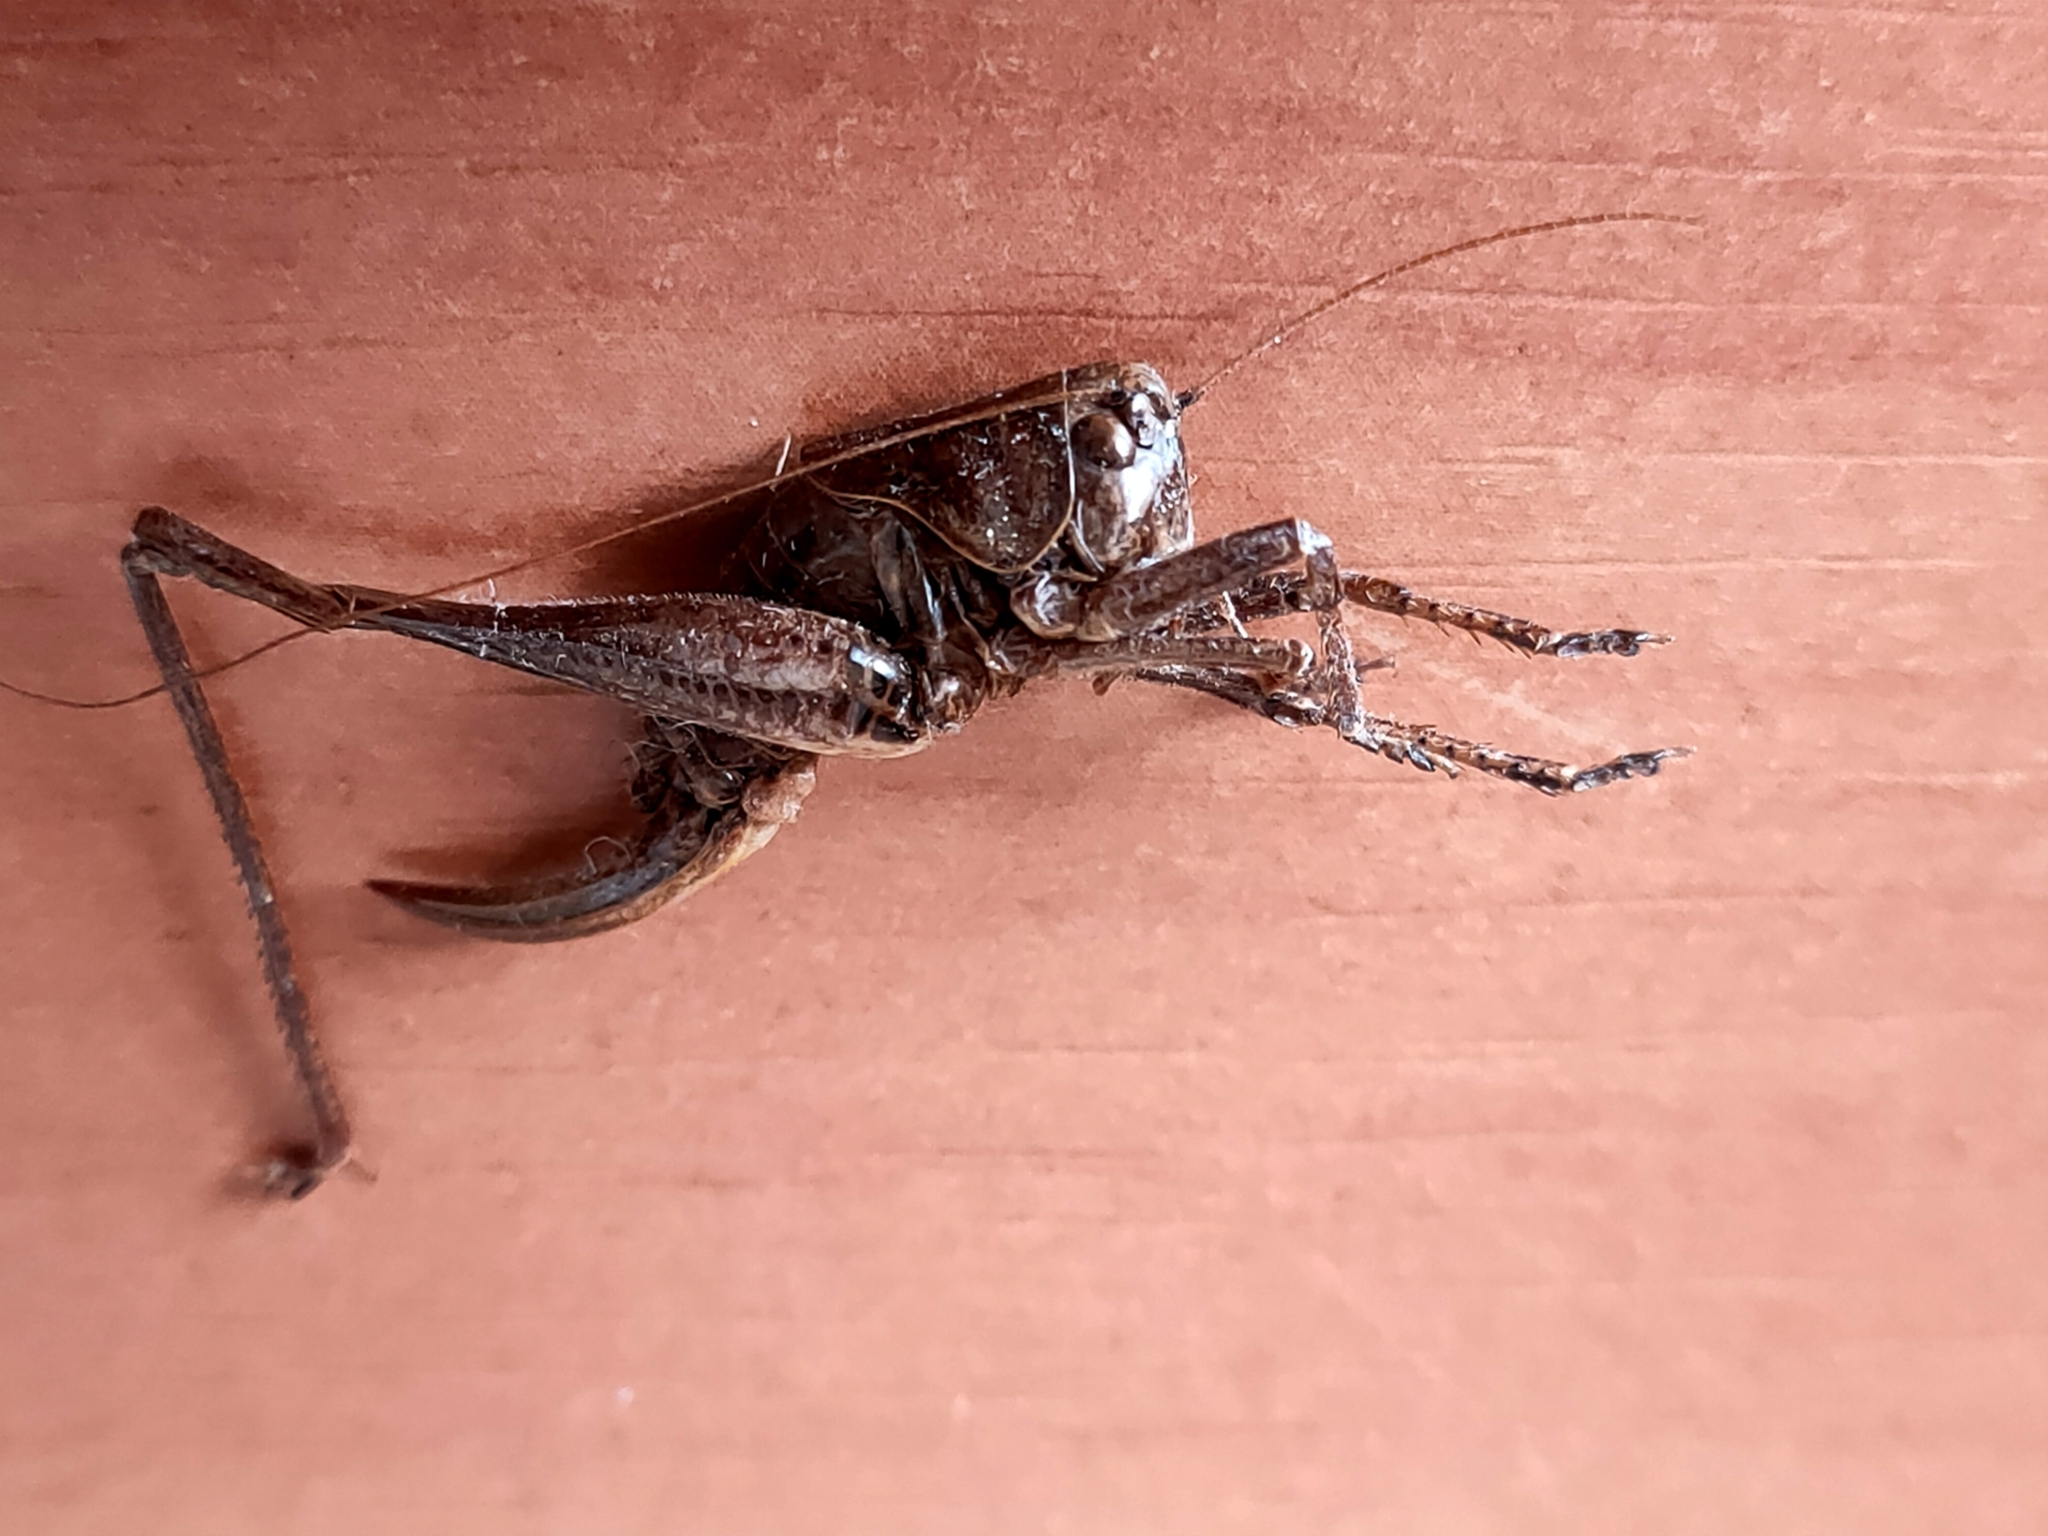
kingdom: Animalia
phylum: Arthropoda
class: Insecta
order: Orthoptera
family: Tettigoniidae
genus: Pholidoptera
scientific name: Pholidoptera griseoaptera
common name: Dark bush-cricket
